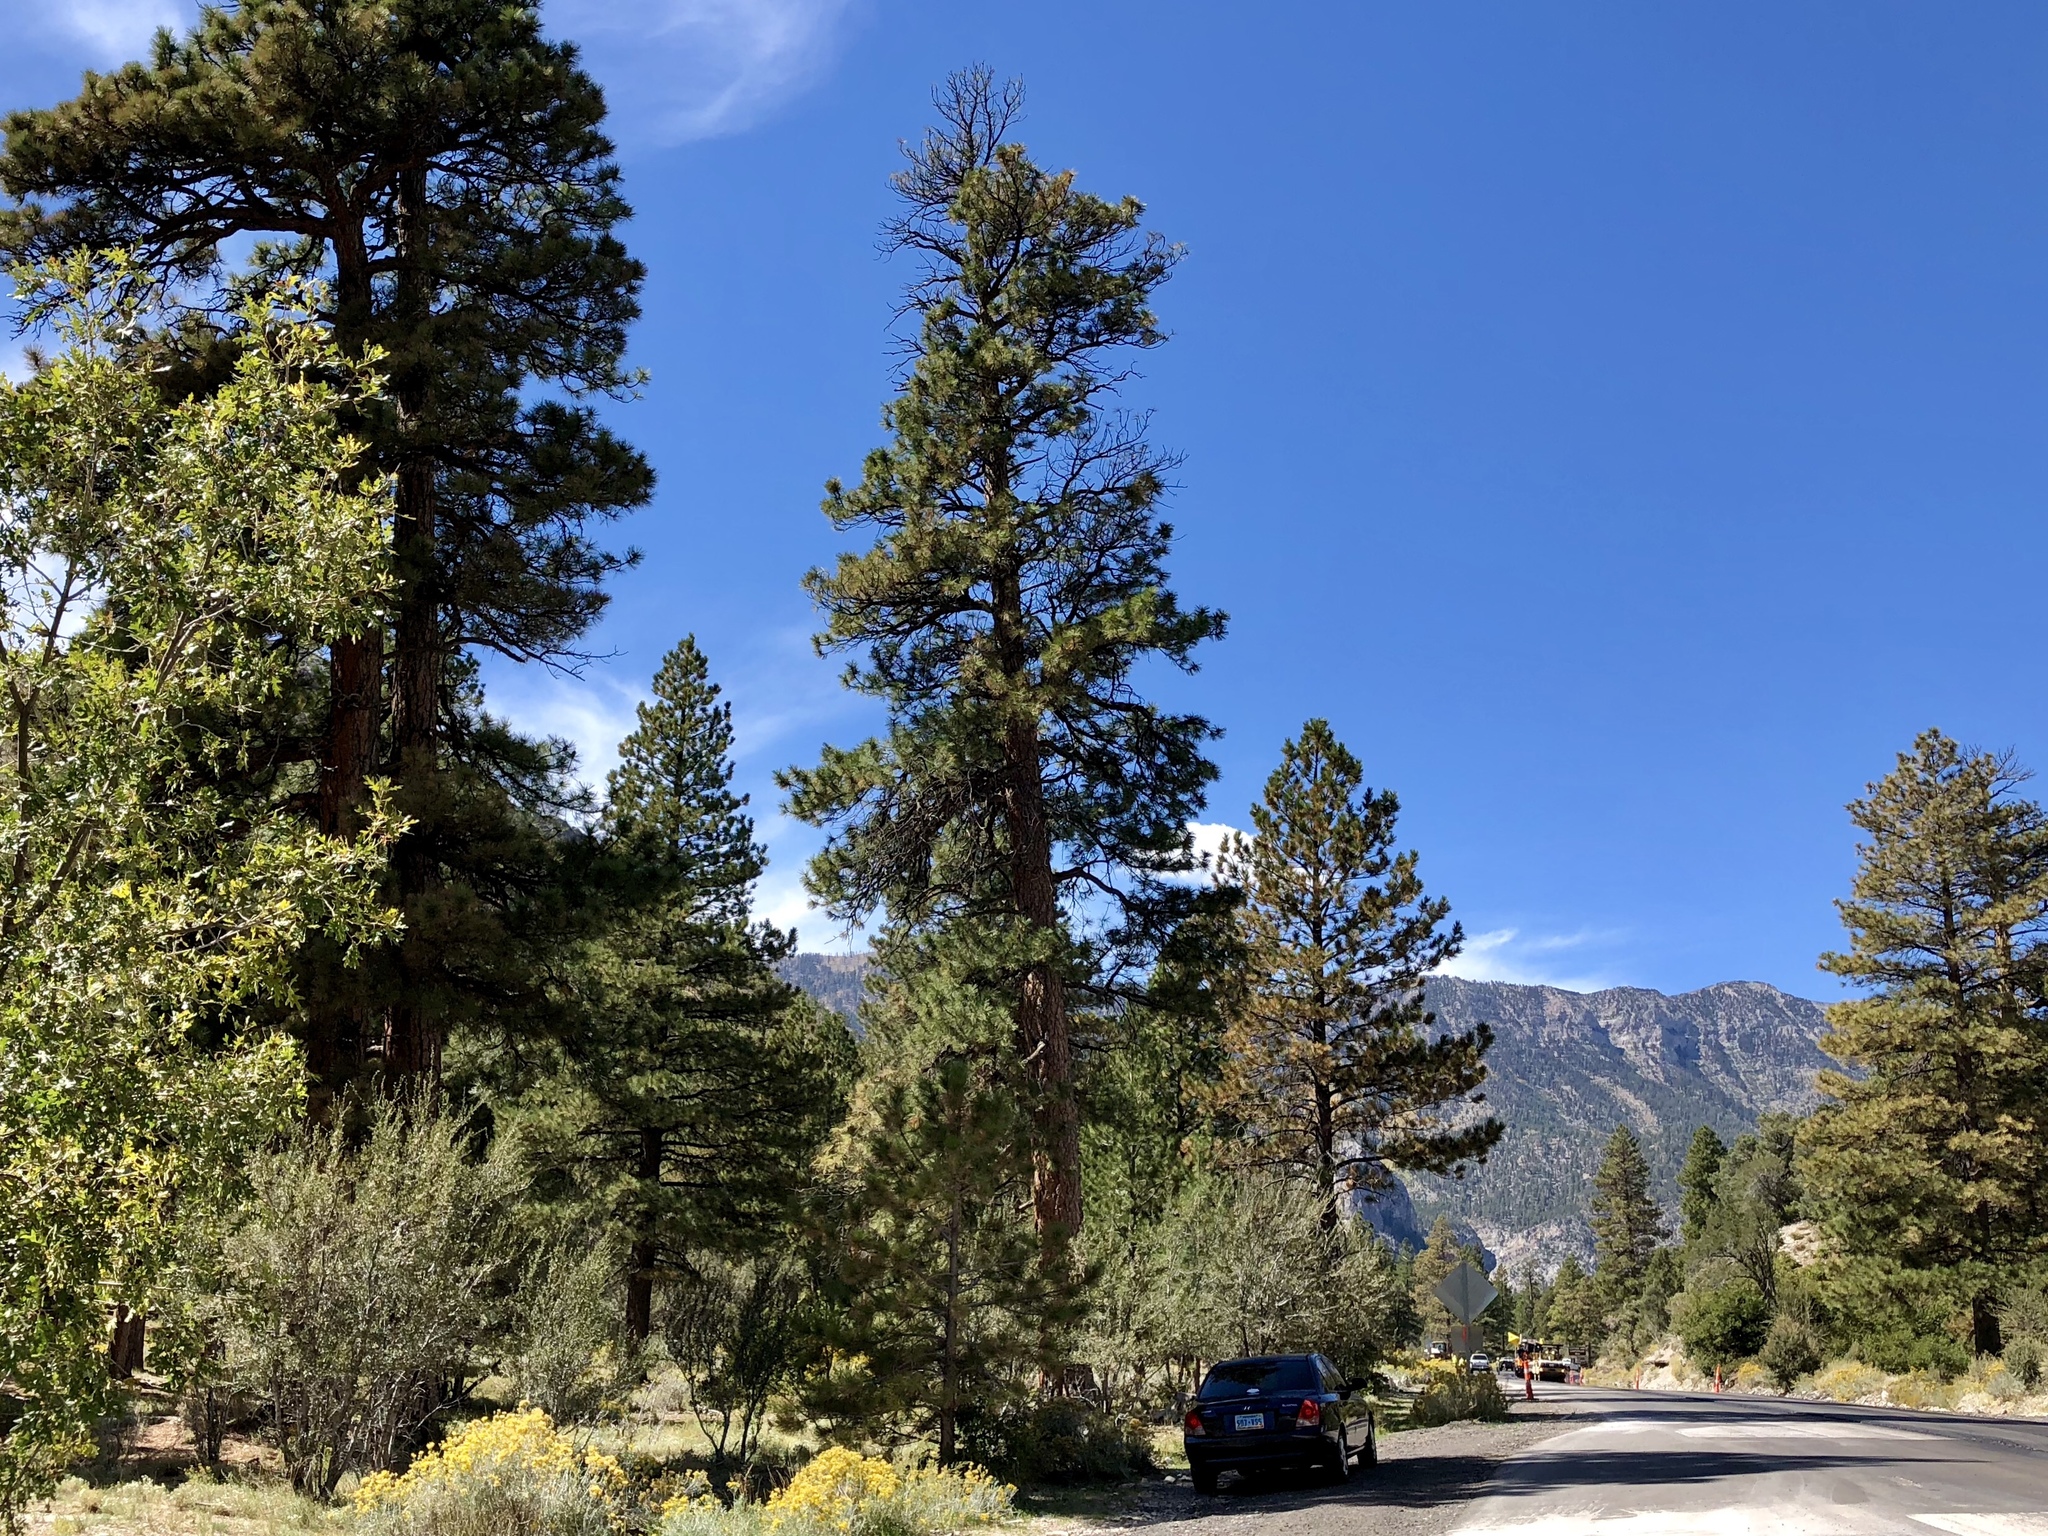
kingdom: Plantae
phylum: Tracheophyta
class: Pinopsida
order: Pinales
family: Pinaceae
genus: Pinus
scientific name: Pinus ponderosa
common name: Western yellow-pine
